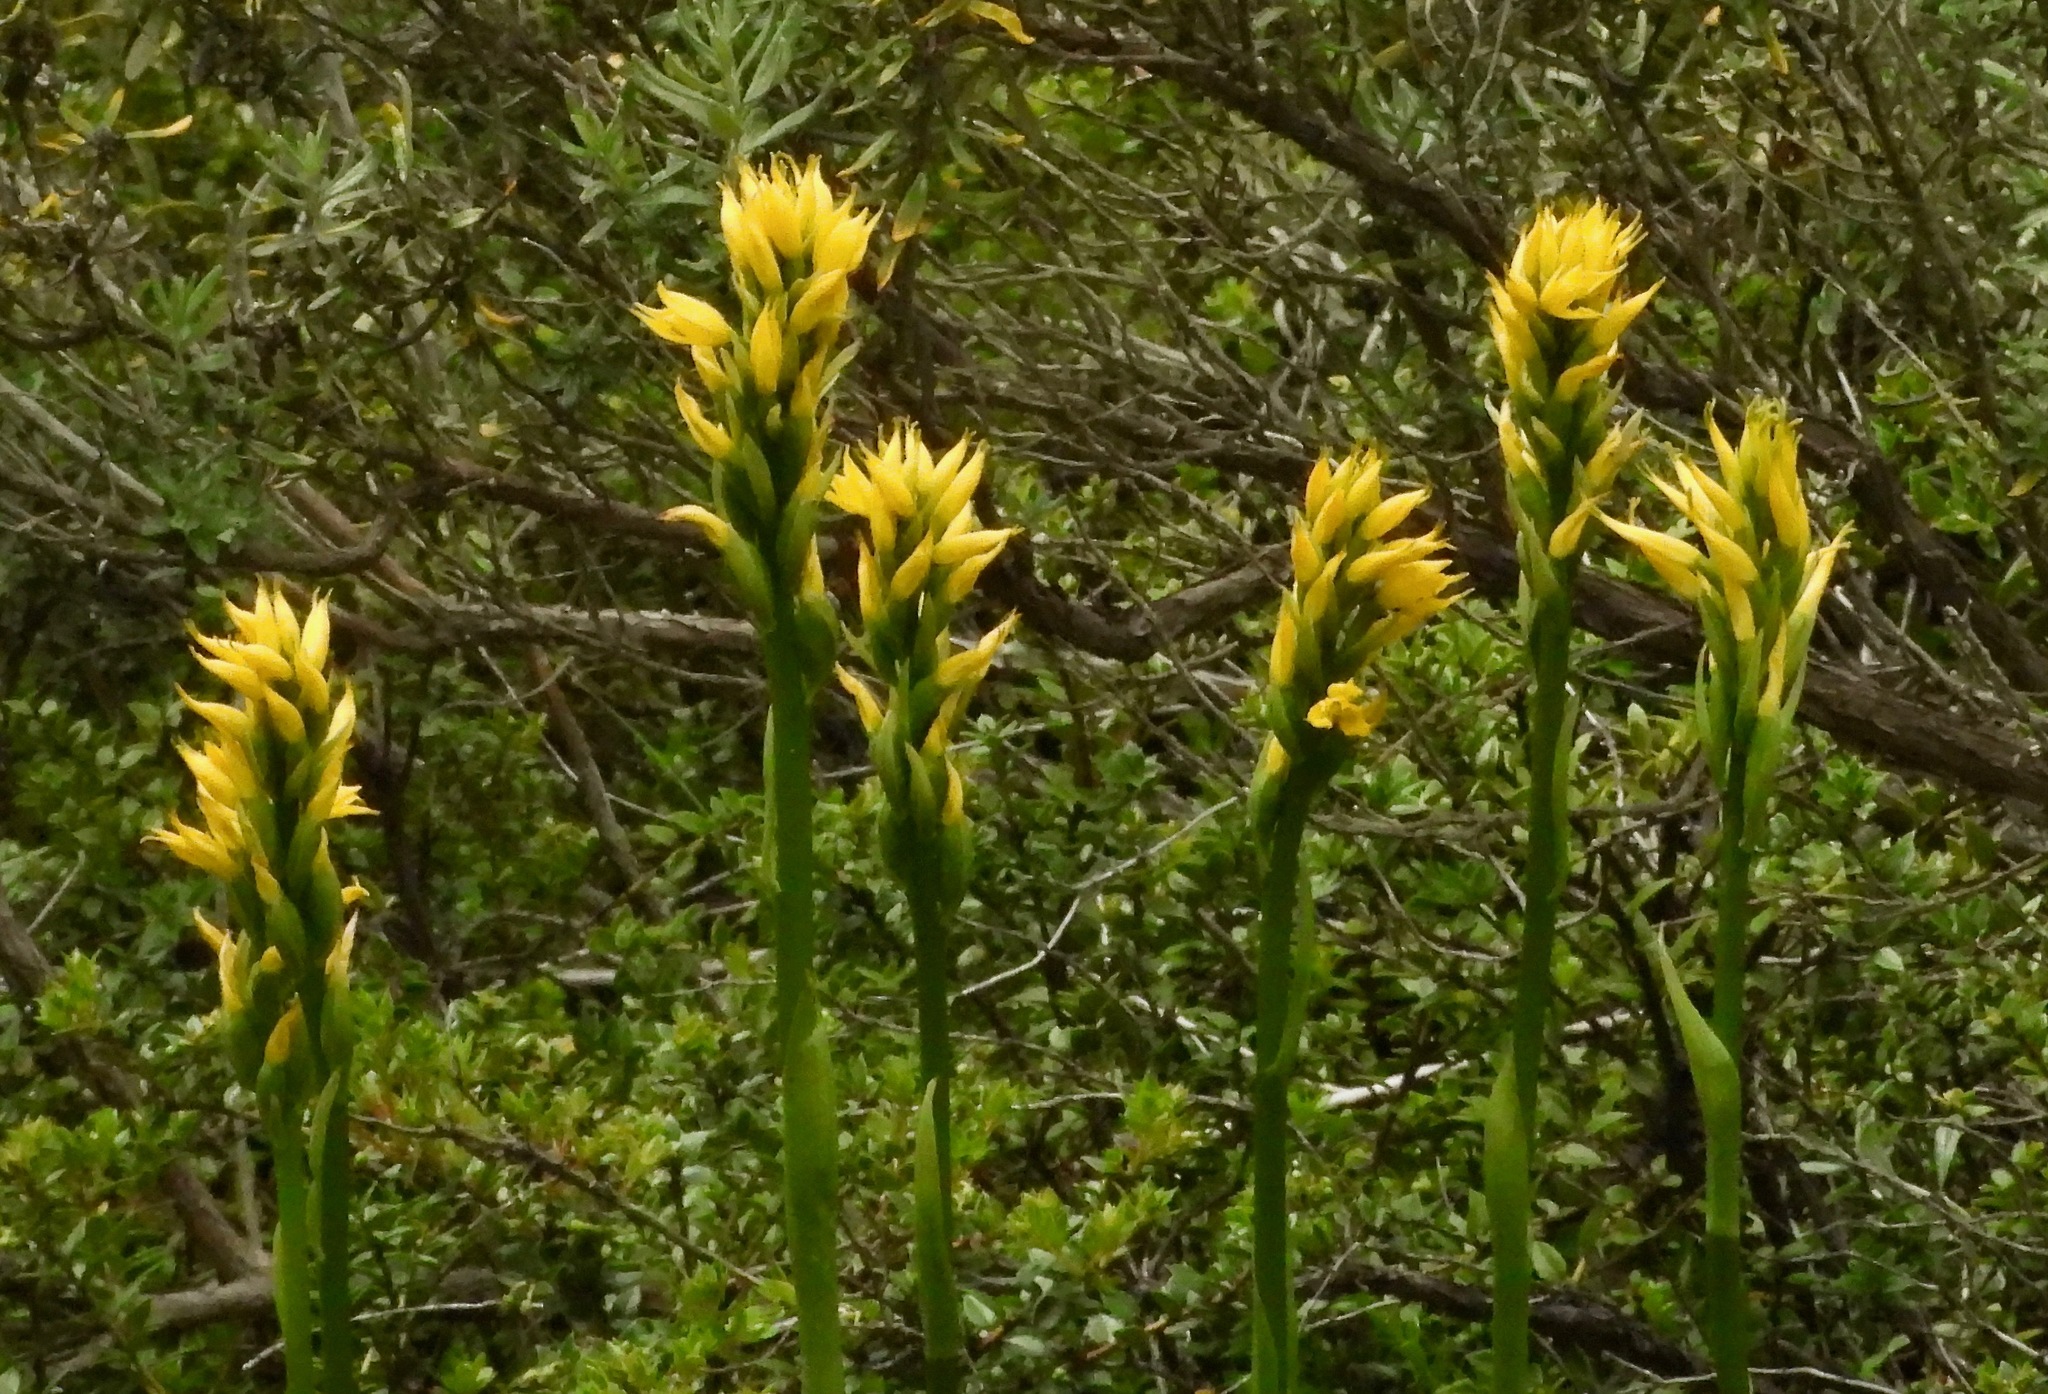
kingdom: Plantae
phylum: Tracheophyta
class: Liliopsida
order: Asparagales
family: Orchidaceae
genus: Gavilea
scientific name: Gavilea lutea
